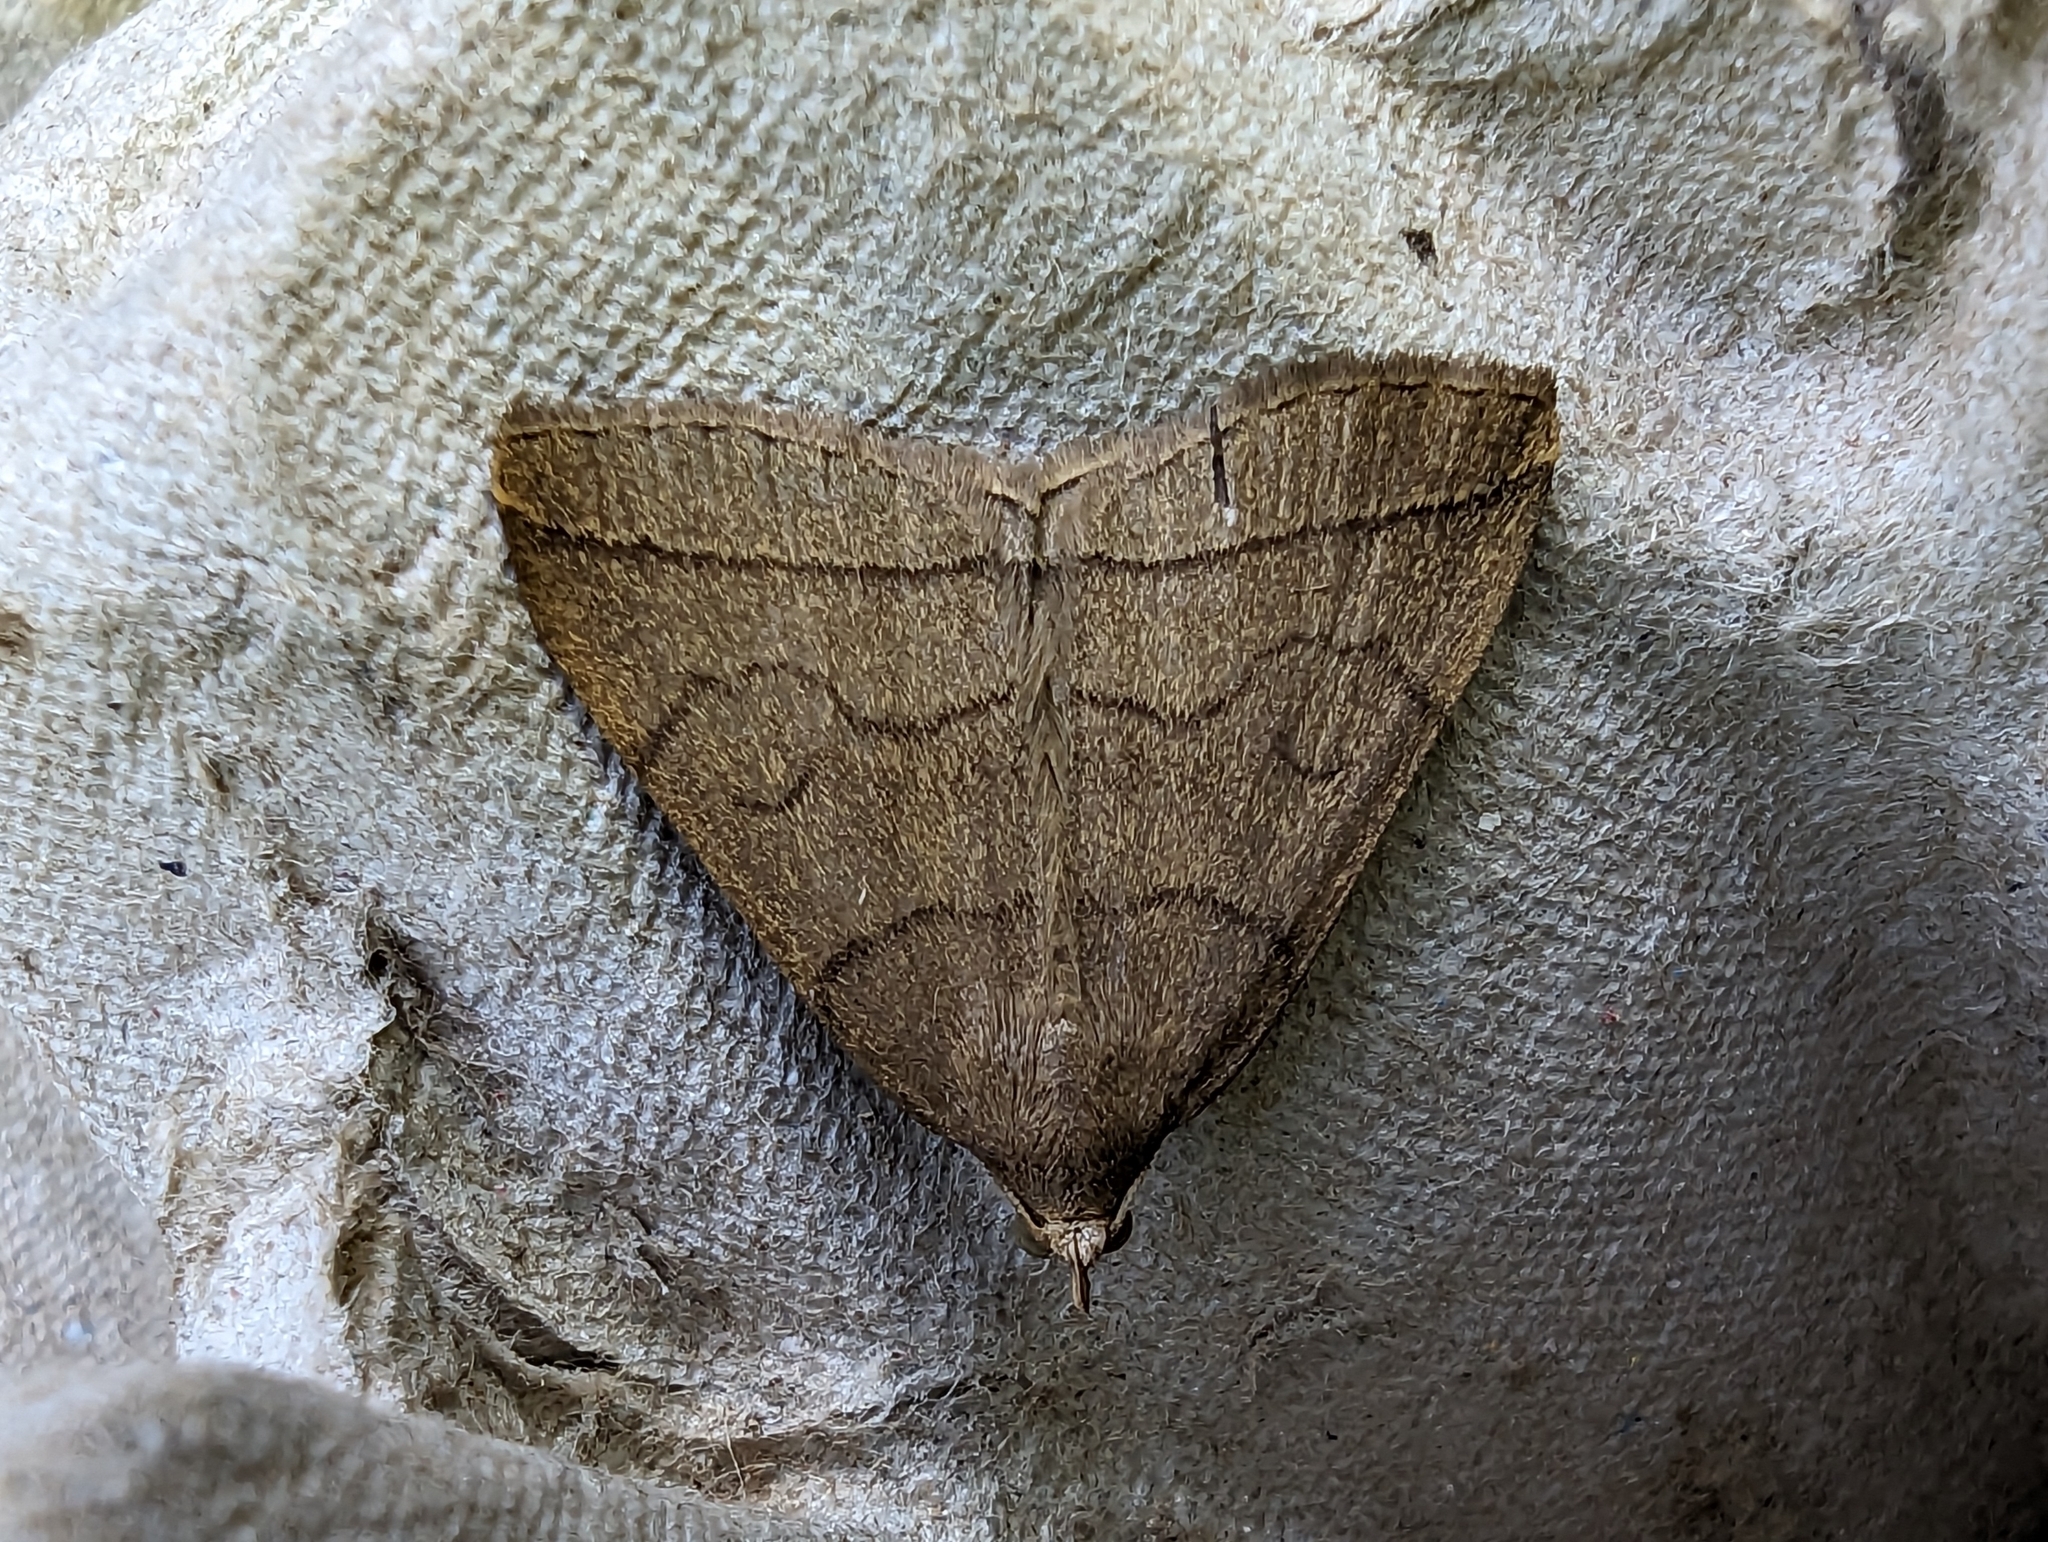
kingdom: Animalia
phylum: Arthropoda
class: Insecta
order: Lepidoptera
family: Erebidae
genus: Herminia
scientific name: Herminia tarsipennalis
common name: Fan-foot
